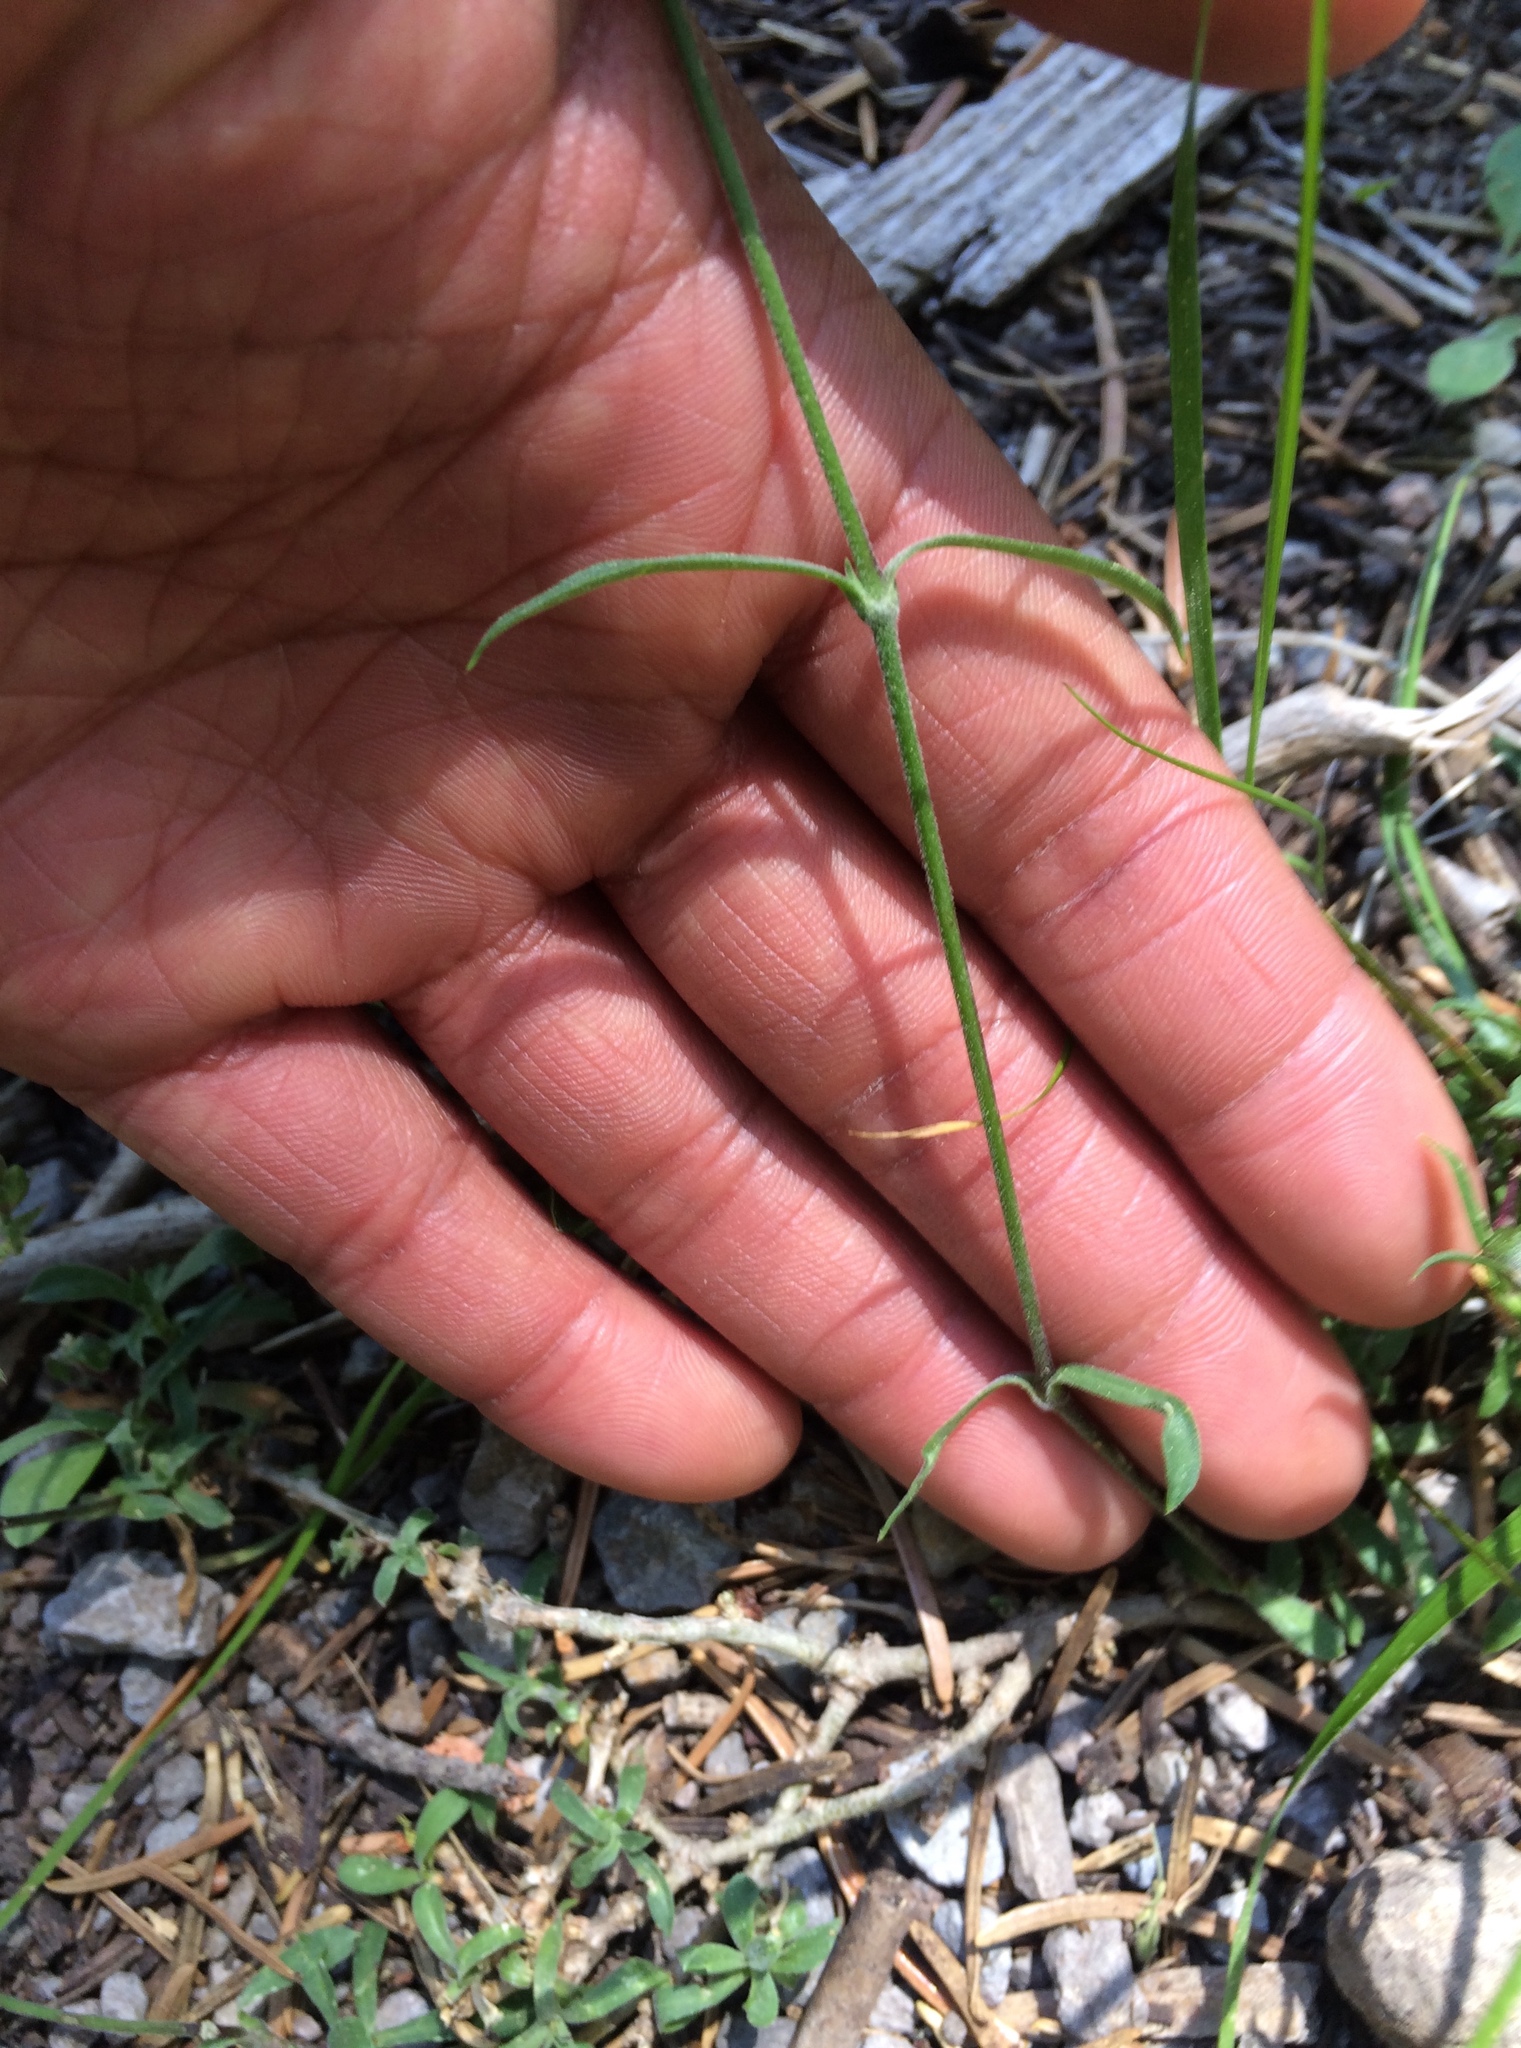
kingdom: Plantae
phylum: Tracheophyta
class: Magnoliopsida
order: Caryophyllales
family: Caryophyllaceae
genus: Silene
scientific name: Silene lemmonii
